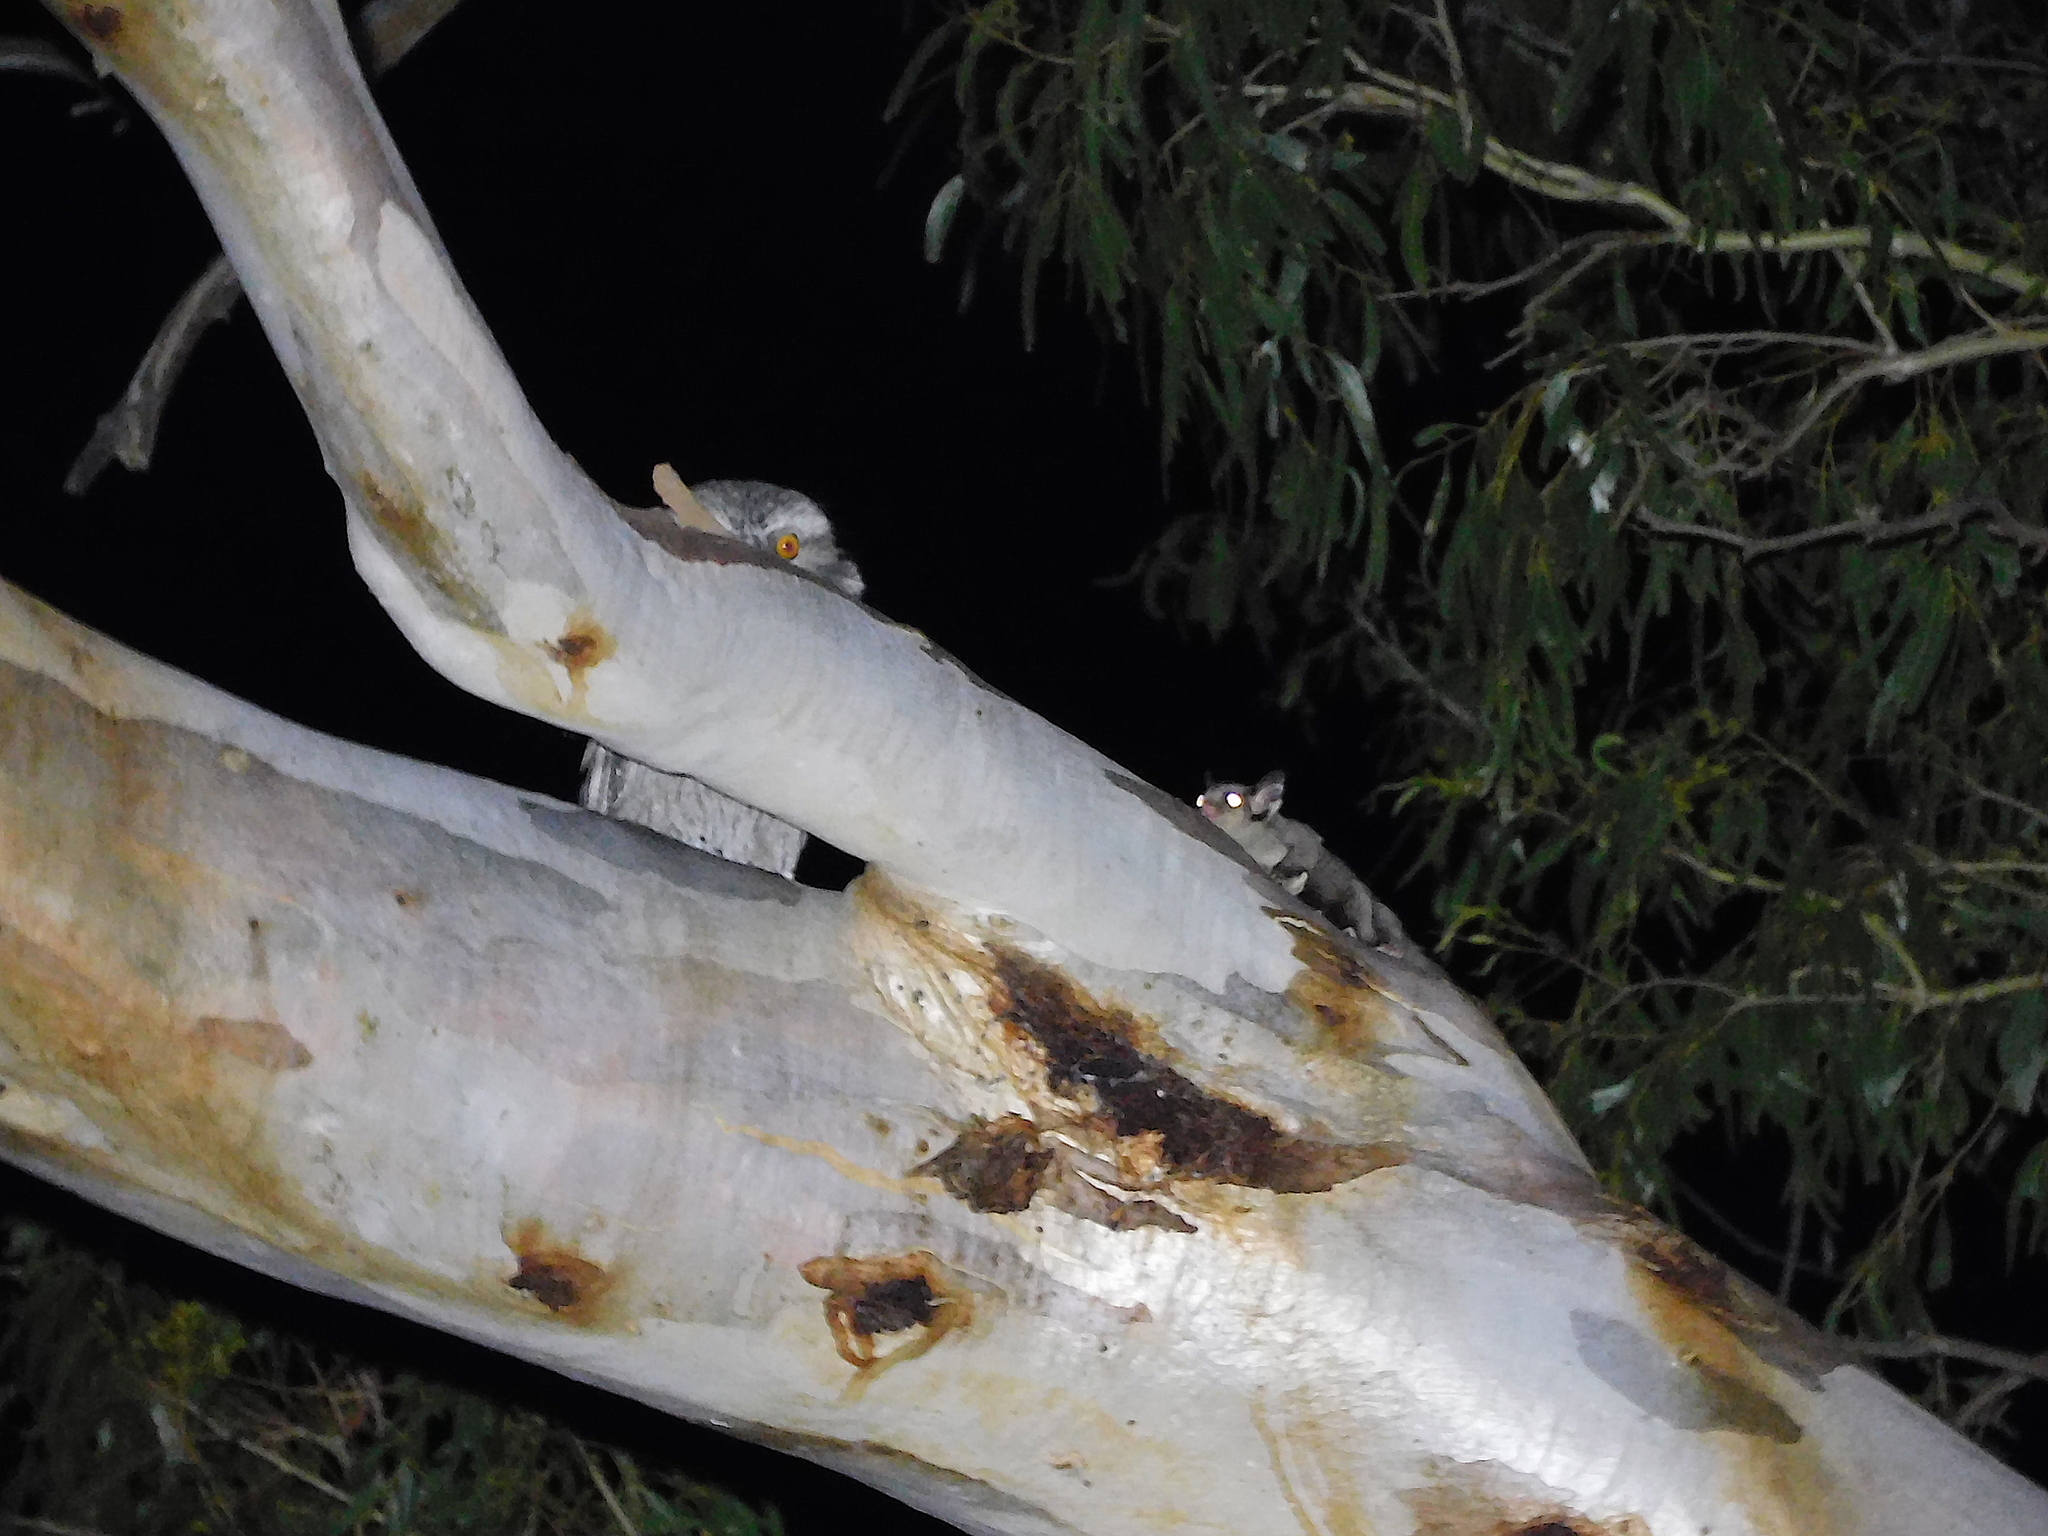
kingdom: Animalia
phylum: Chordata
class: Mammalia
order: Diprotodontia
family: Petauridae
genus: Petaurus
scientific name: Petaurus breviceps
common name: Sugar glider
